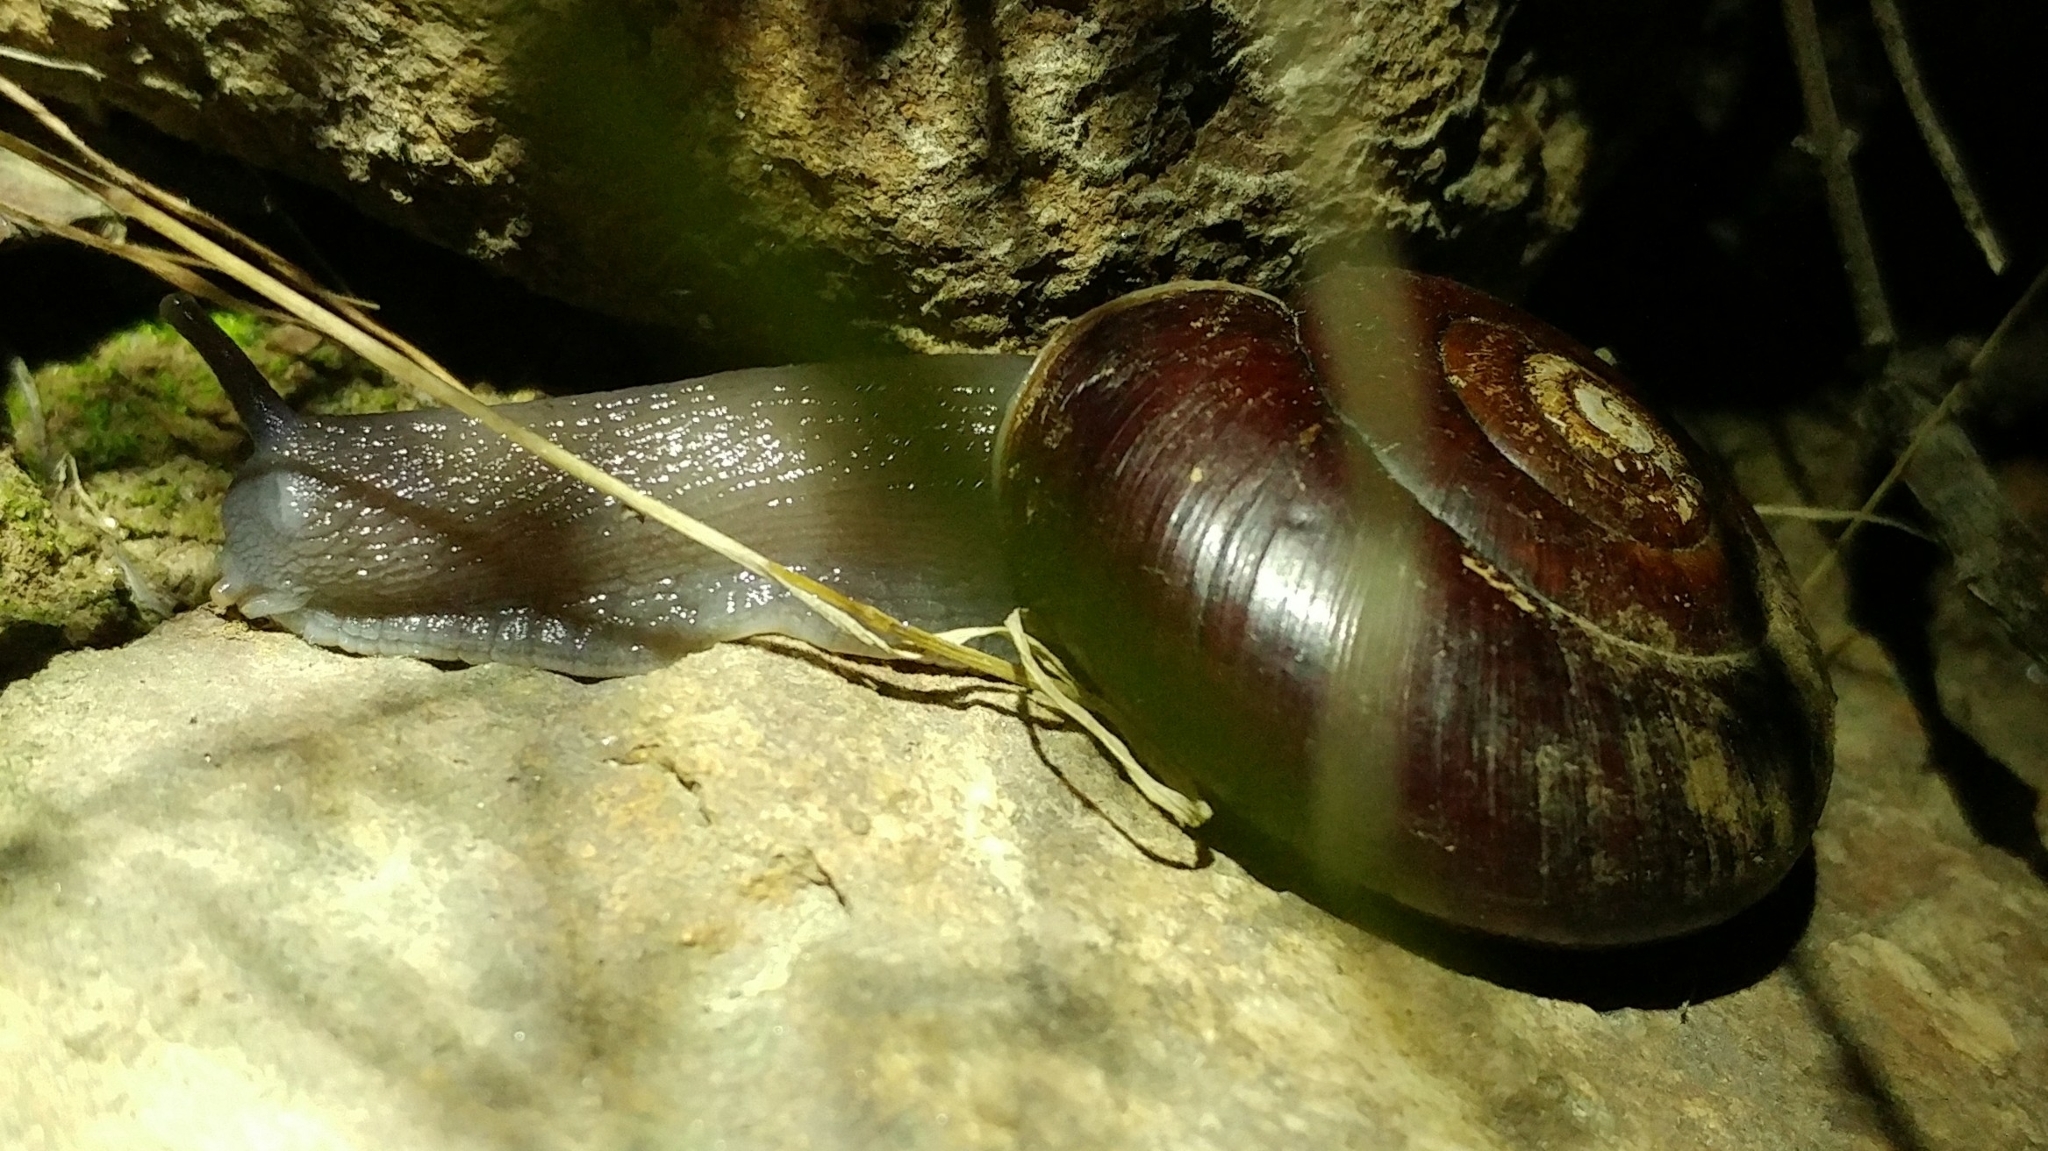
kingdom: Animalia
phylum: Mollusca
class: Gastropoda
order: Stylommatophora
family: Megomphicidae
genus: Glyptostoma
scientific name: Glyptostoma newberryanum
